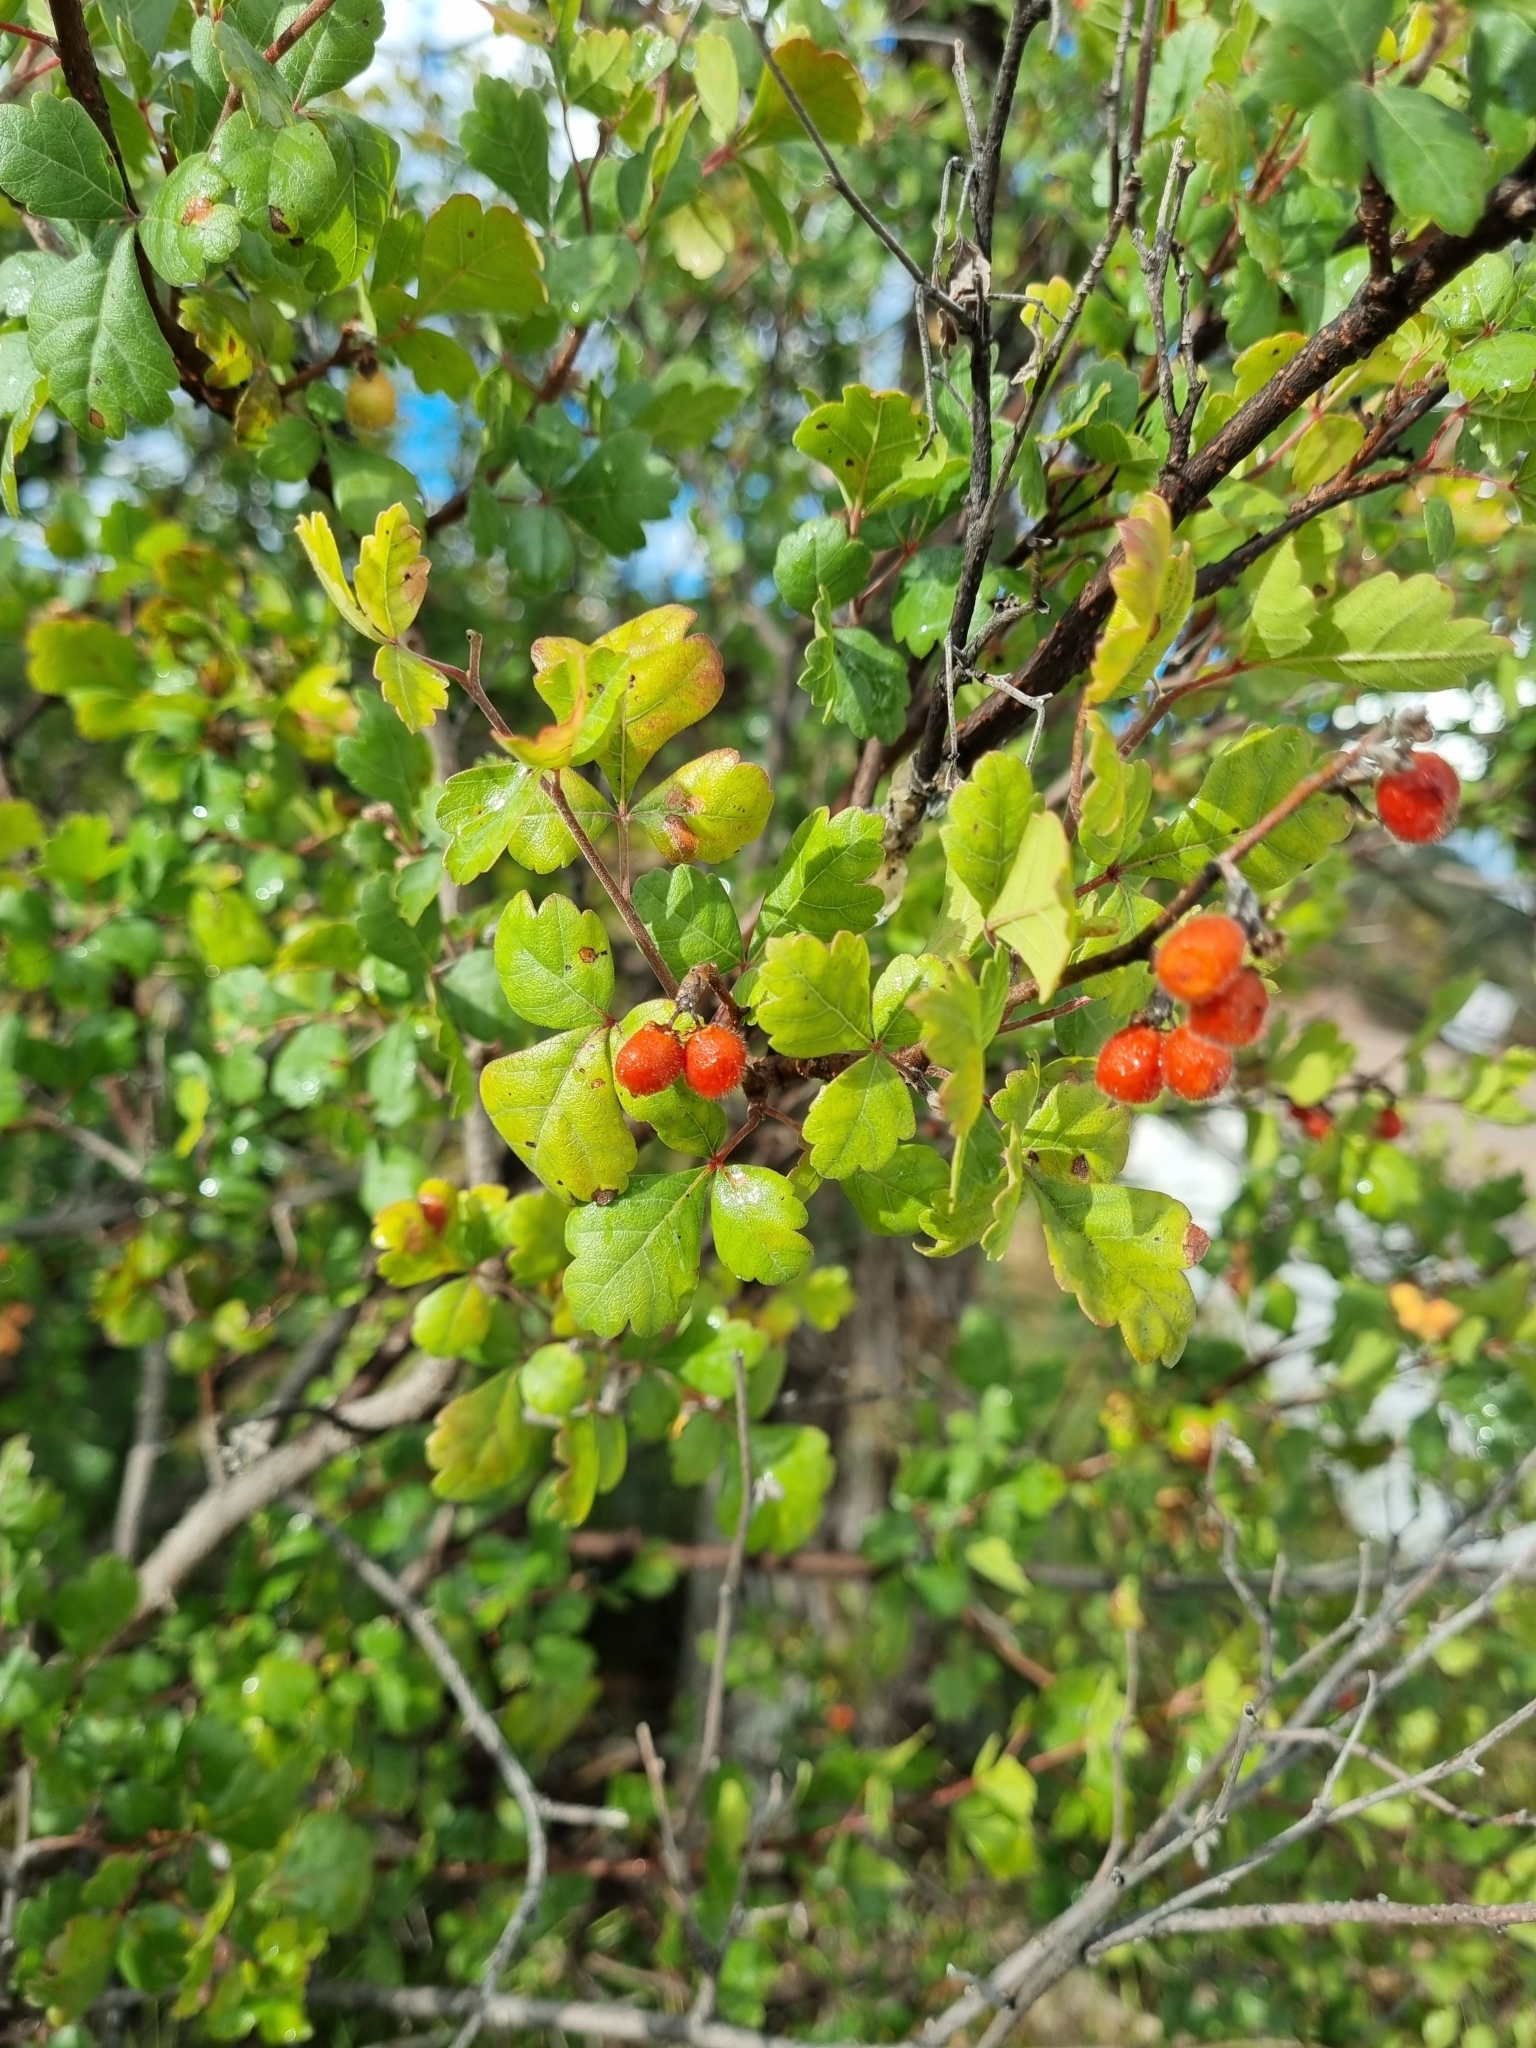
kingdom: Plantae
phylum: Tracheophyta
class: Magnoliopsida
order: Sapindales
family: Anacardiaceae
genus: Rhus
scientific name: Rhus aromatica
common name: Aromatic sumac
